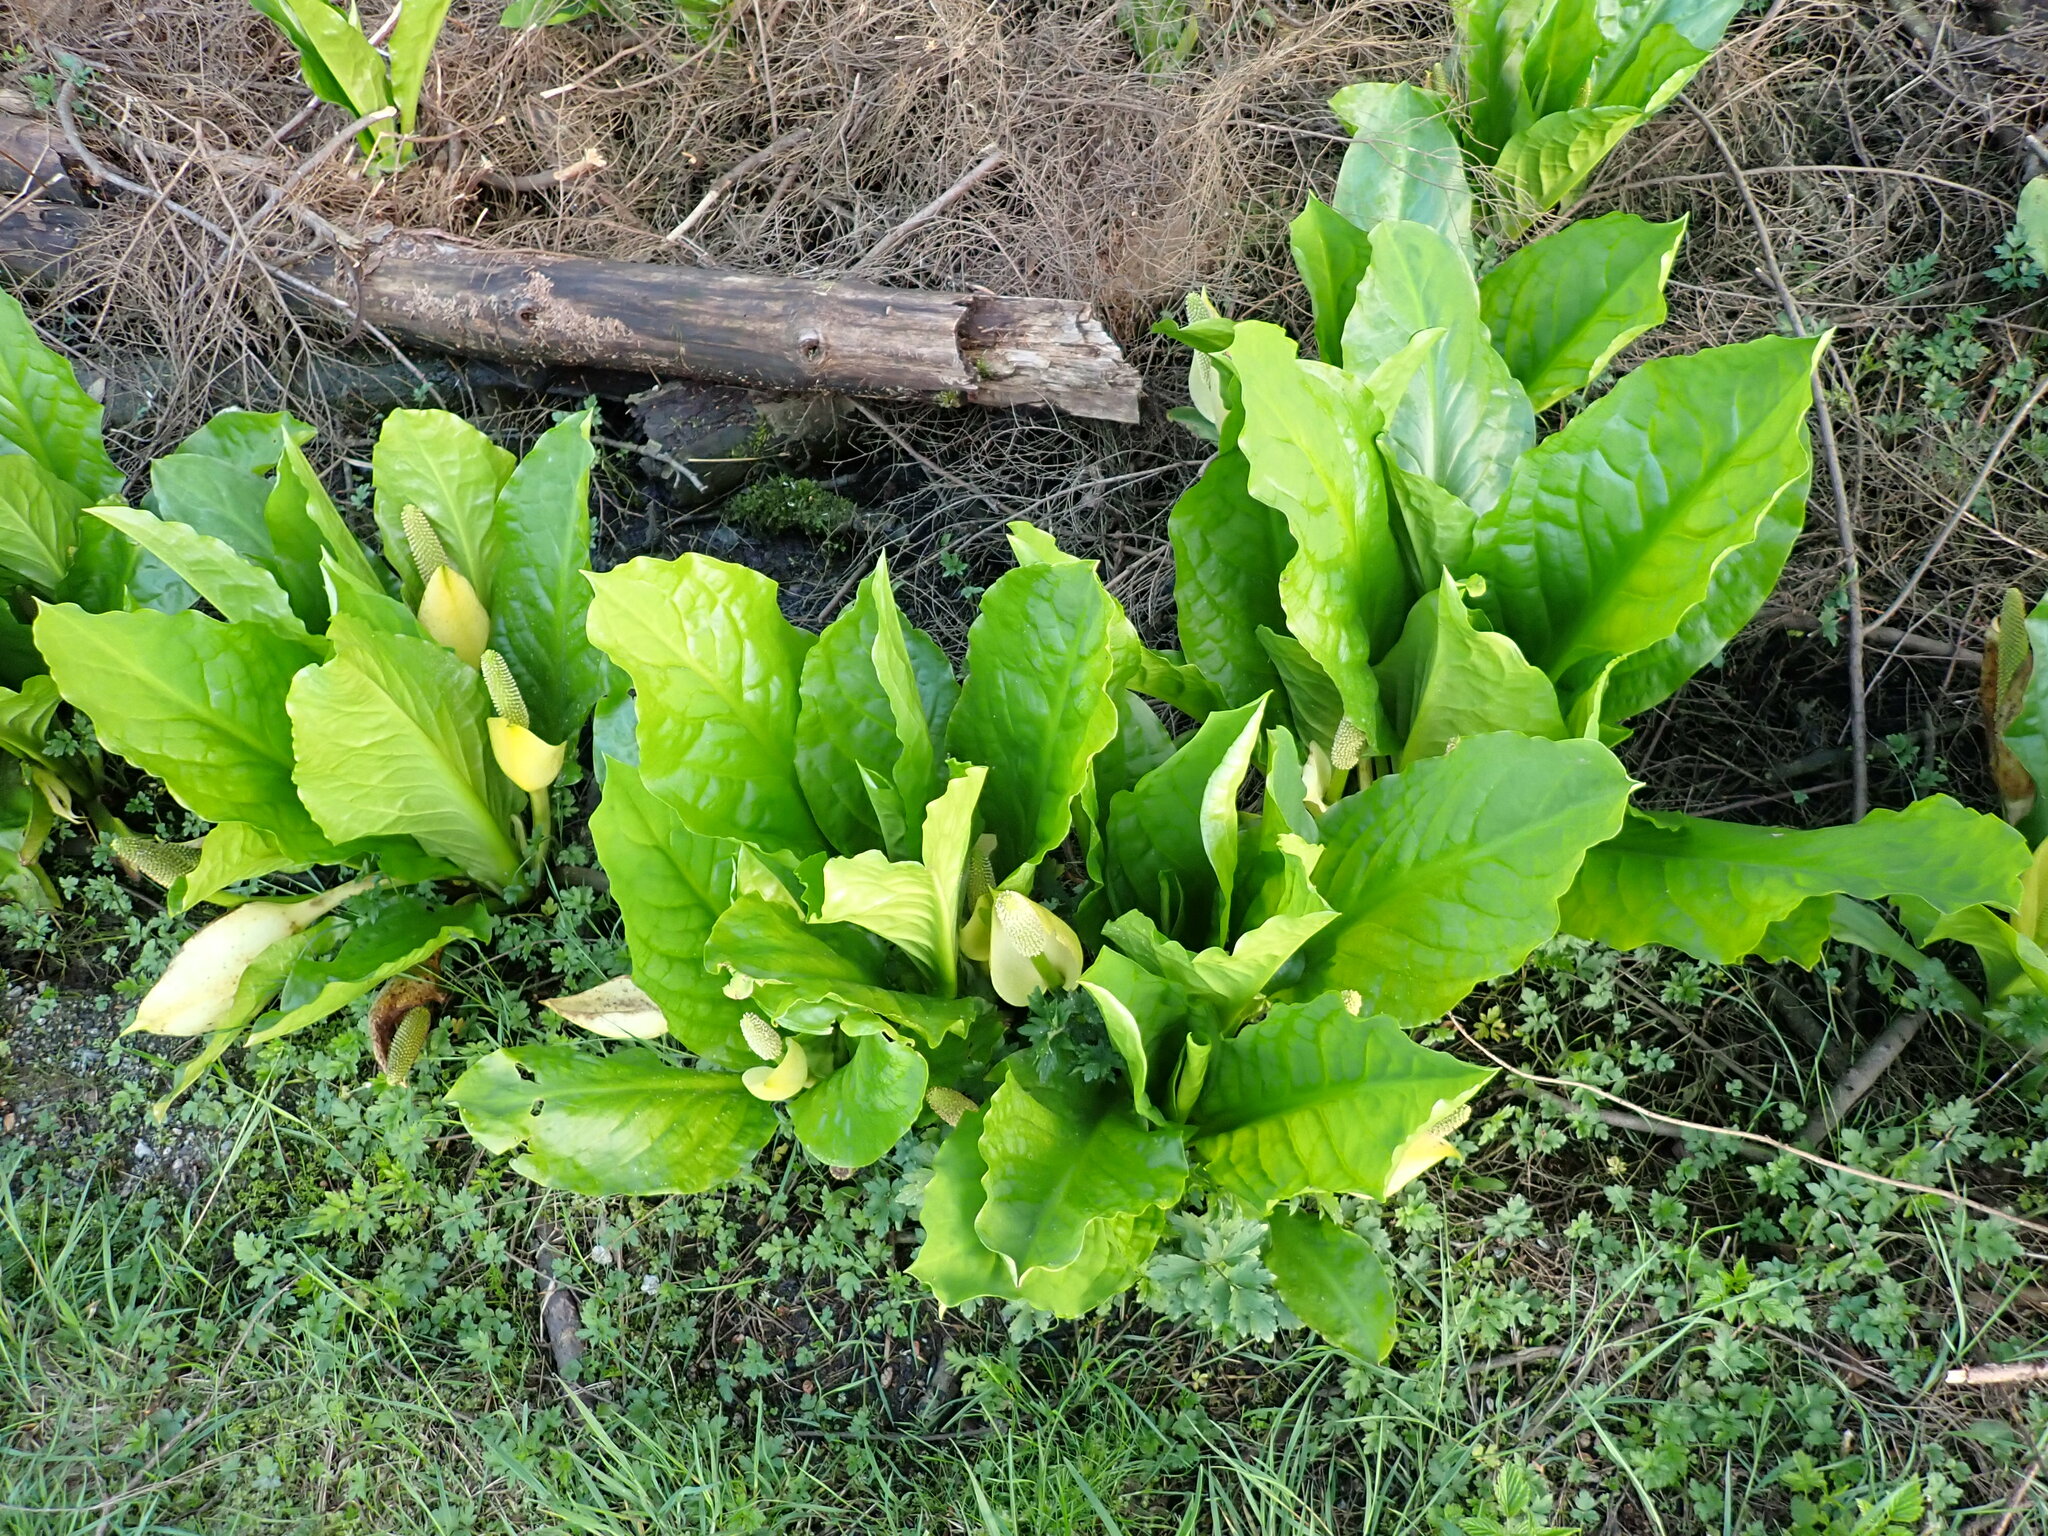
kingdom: Plantae
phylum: Tracheophyta
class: Liliopsida
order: Alismatales
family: Araceae
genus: Lysichiton
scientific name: Lysichiton americanus
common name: American skunk cabbage
